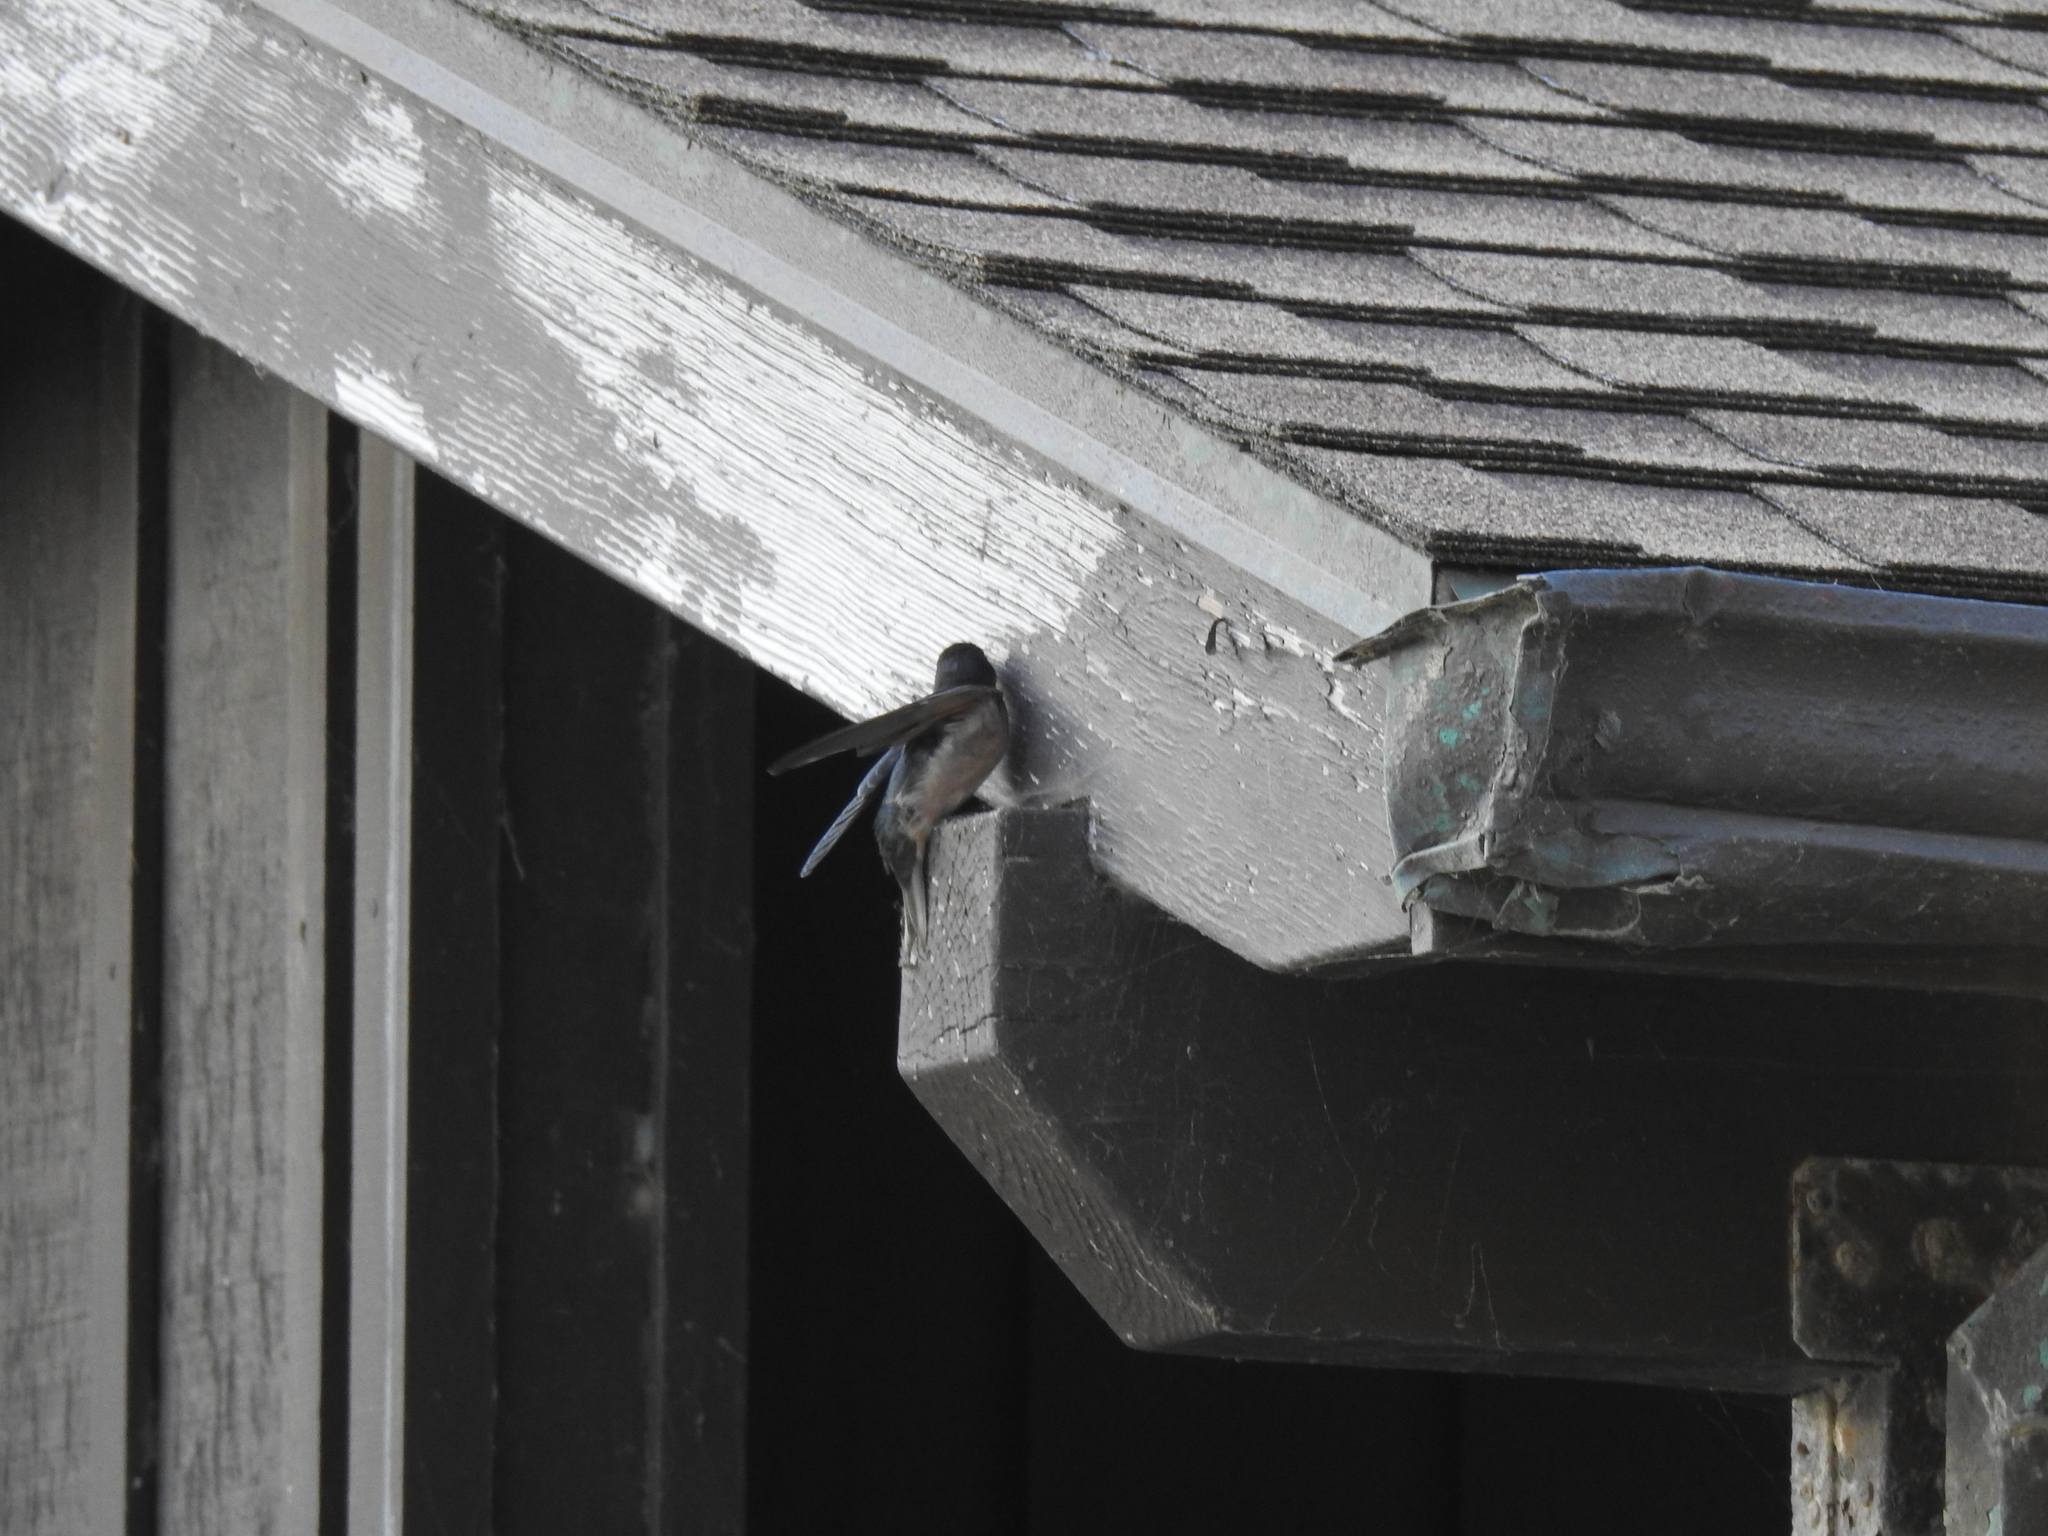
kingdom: Animalia
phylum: Chordata
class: Aves
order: Passeriformes
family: Hirundinidae
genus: Hirundo
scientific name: Hirundo rustica
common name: Barn swallow
